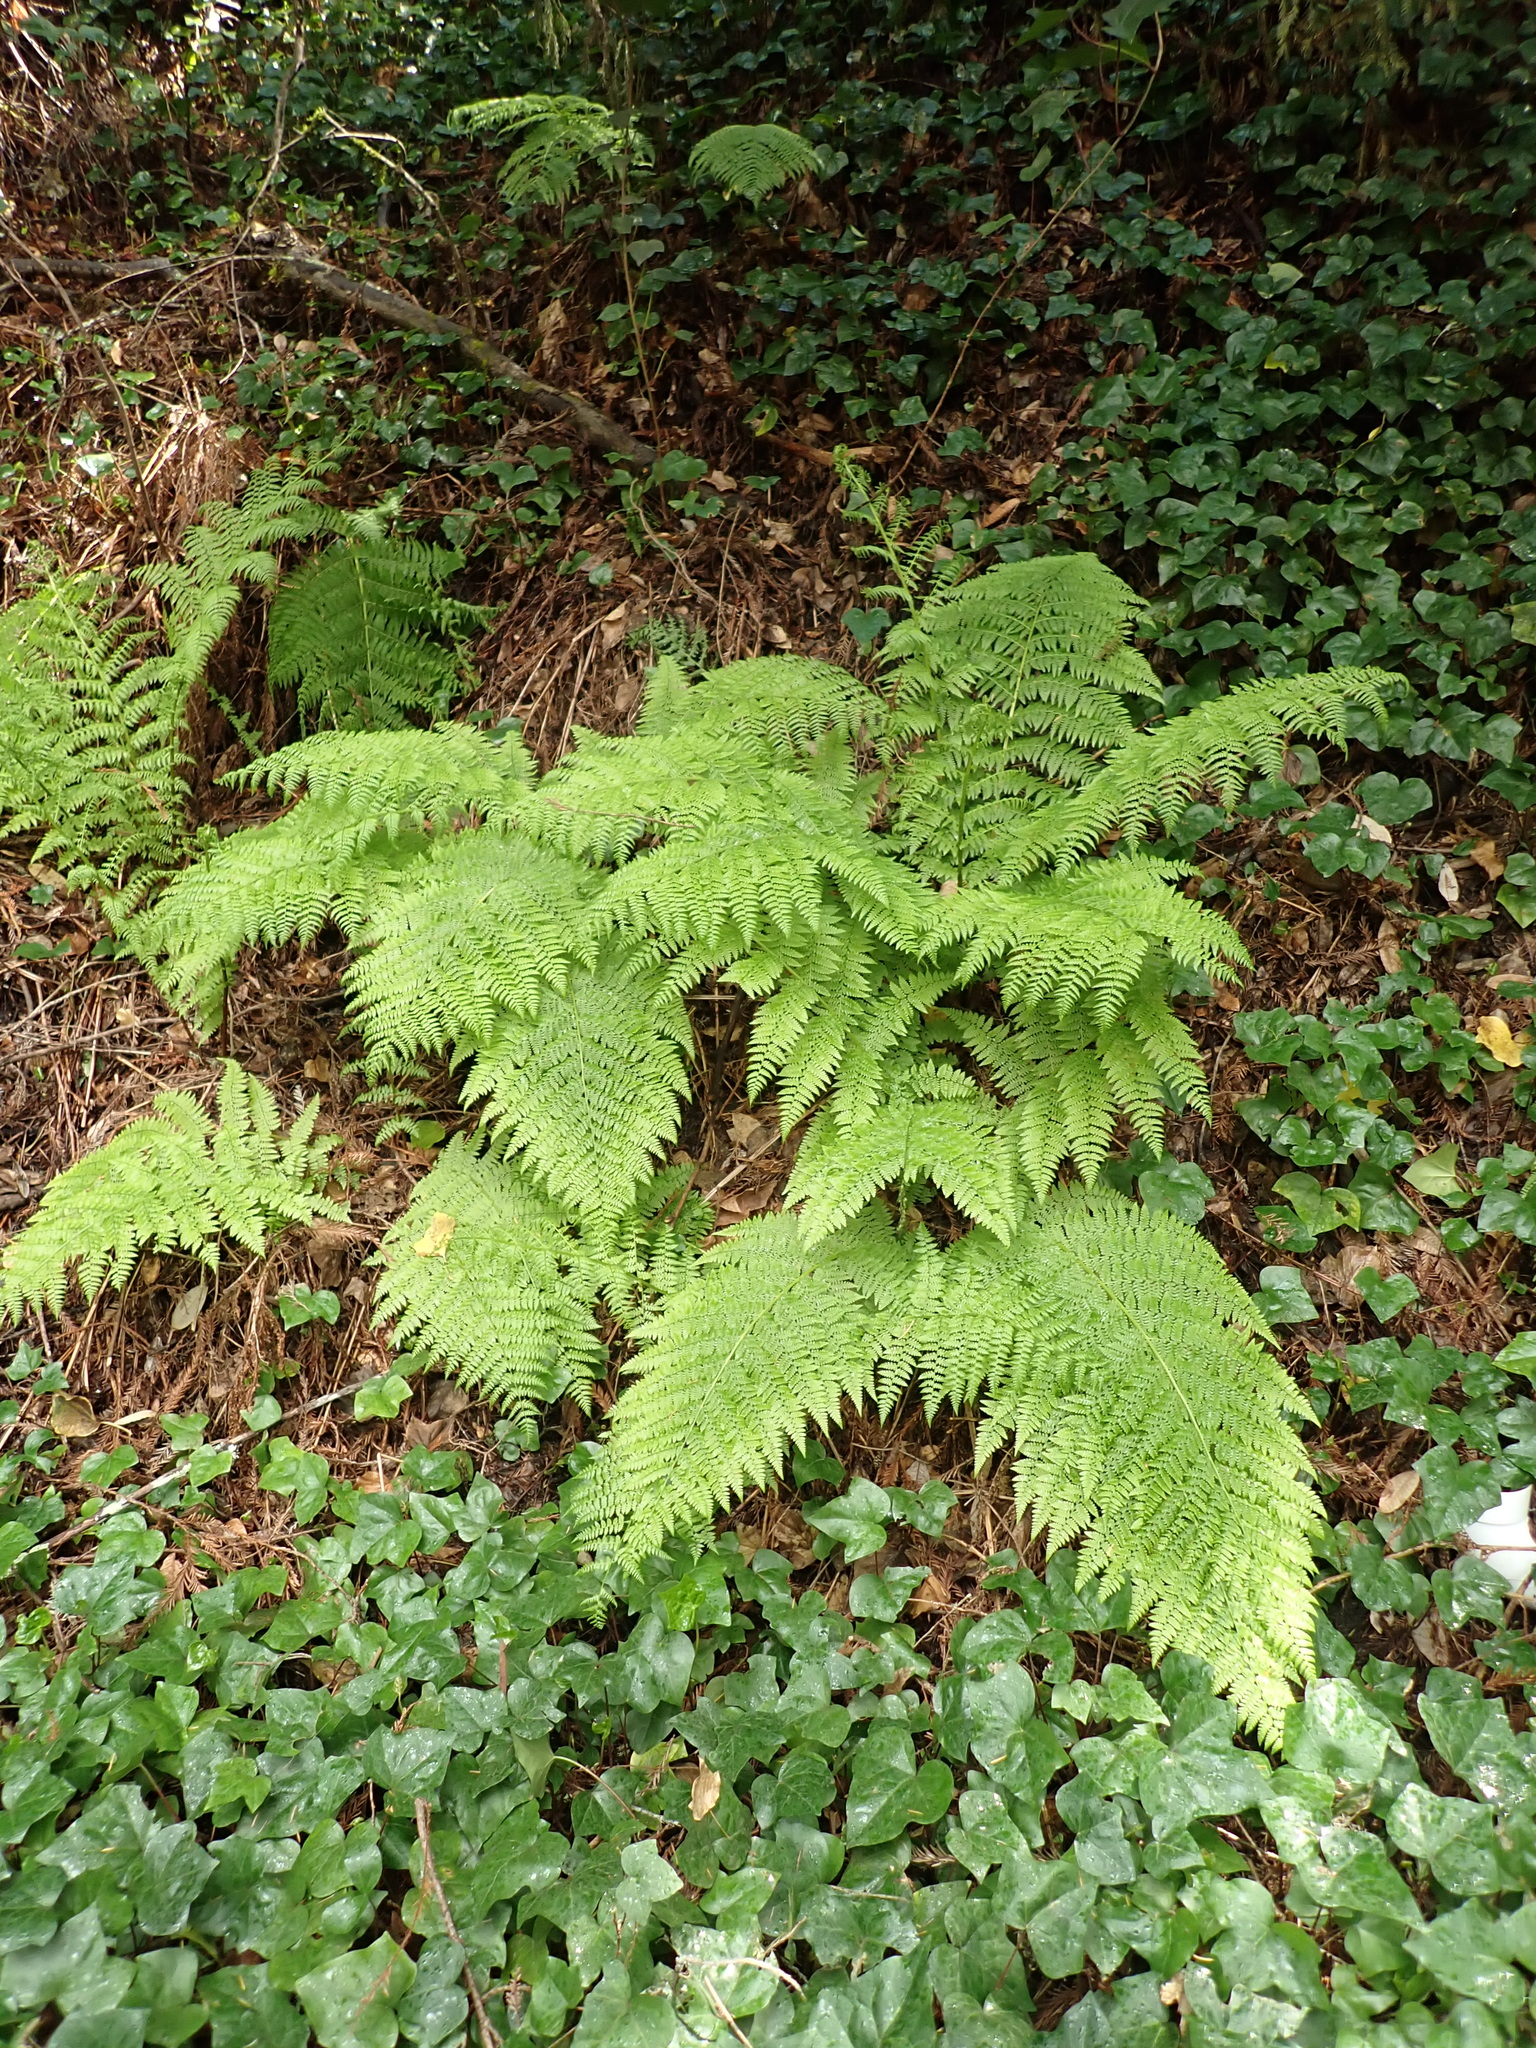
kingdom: Plantae
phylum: Tracheophyta
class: Polypodiopsida
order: Polypodiales
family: Athyriaceae
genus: Athyrium
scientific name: Athyrium filix-femina
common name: Lady fern
